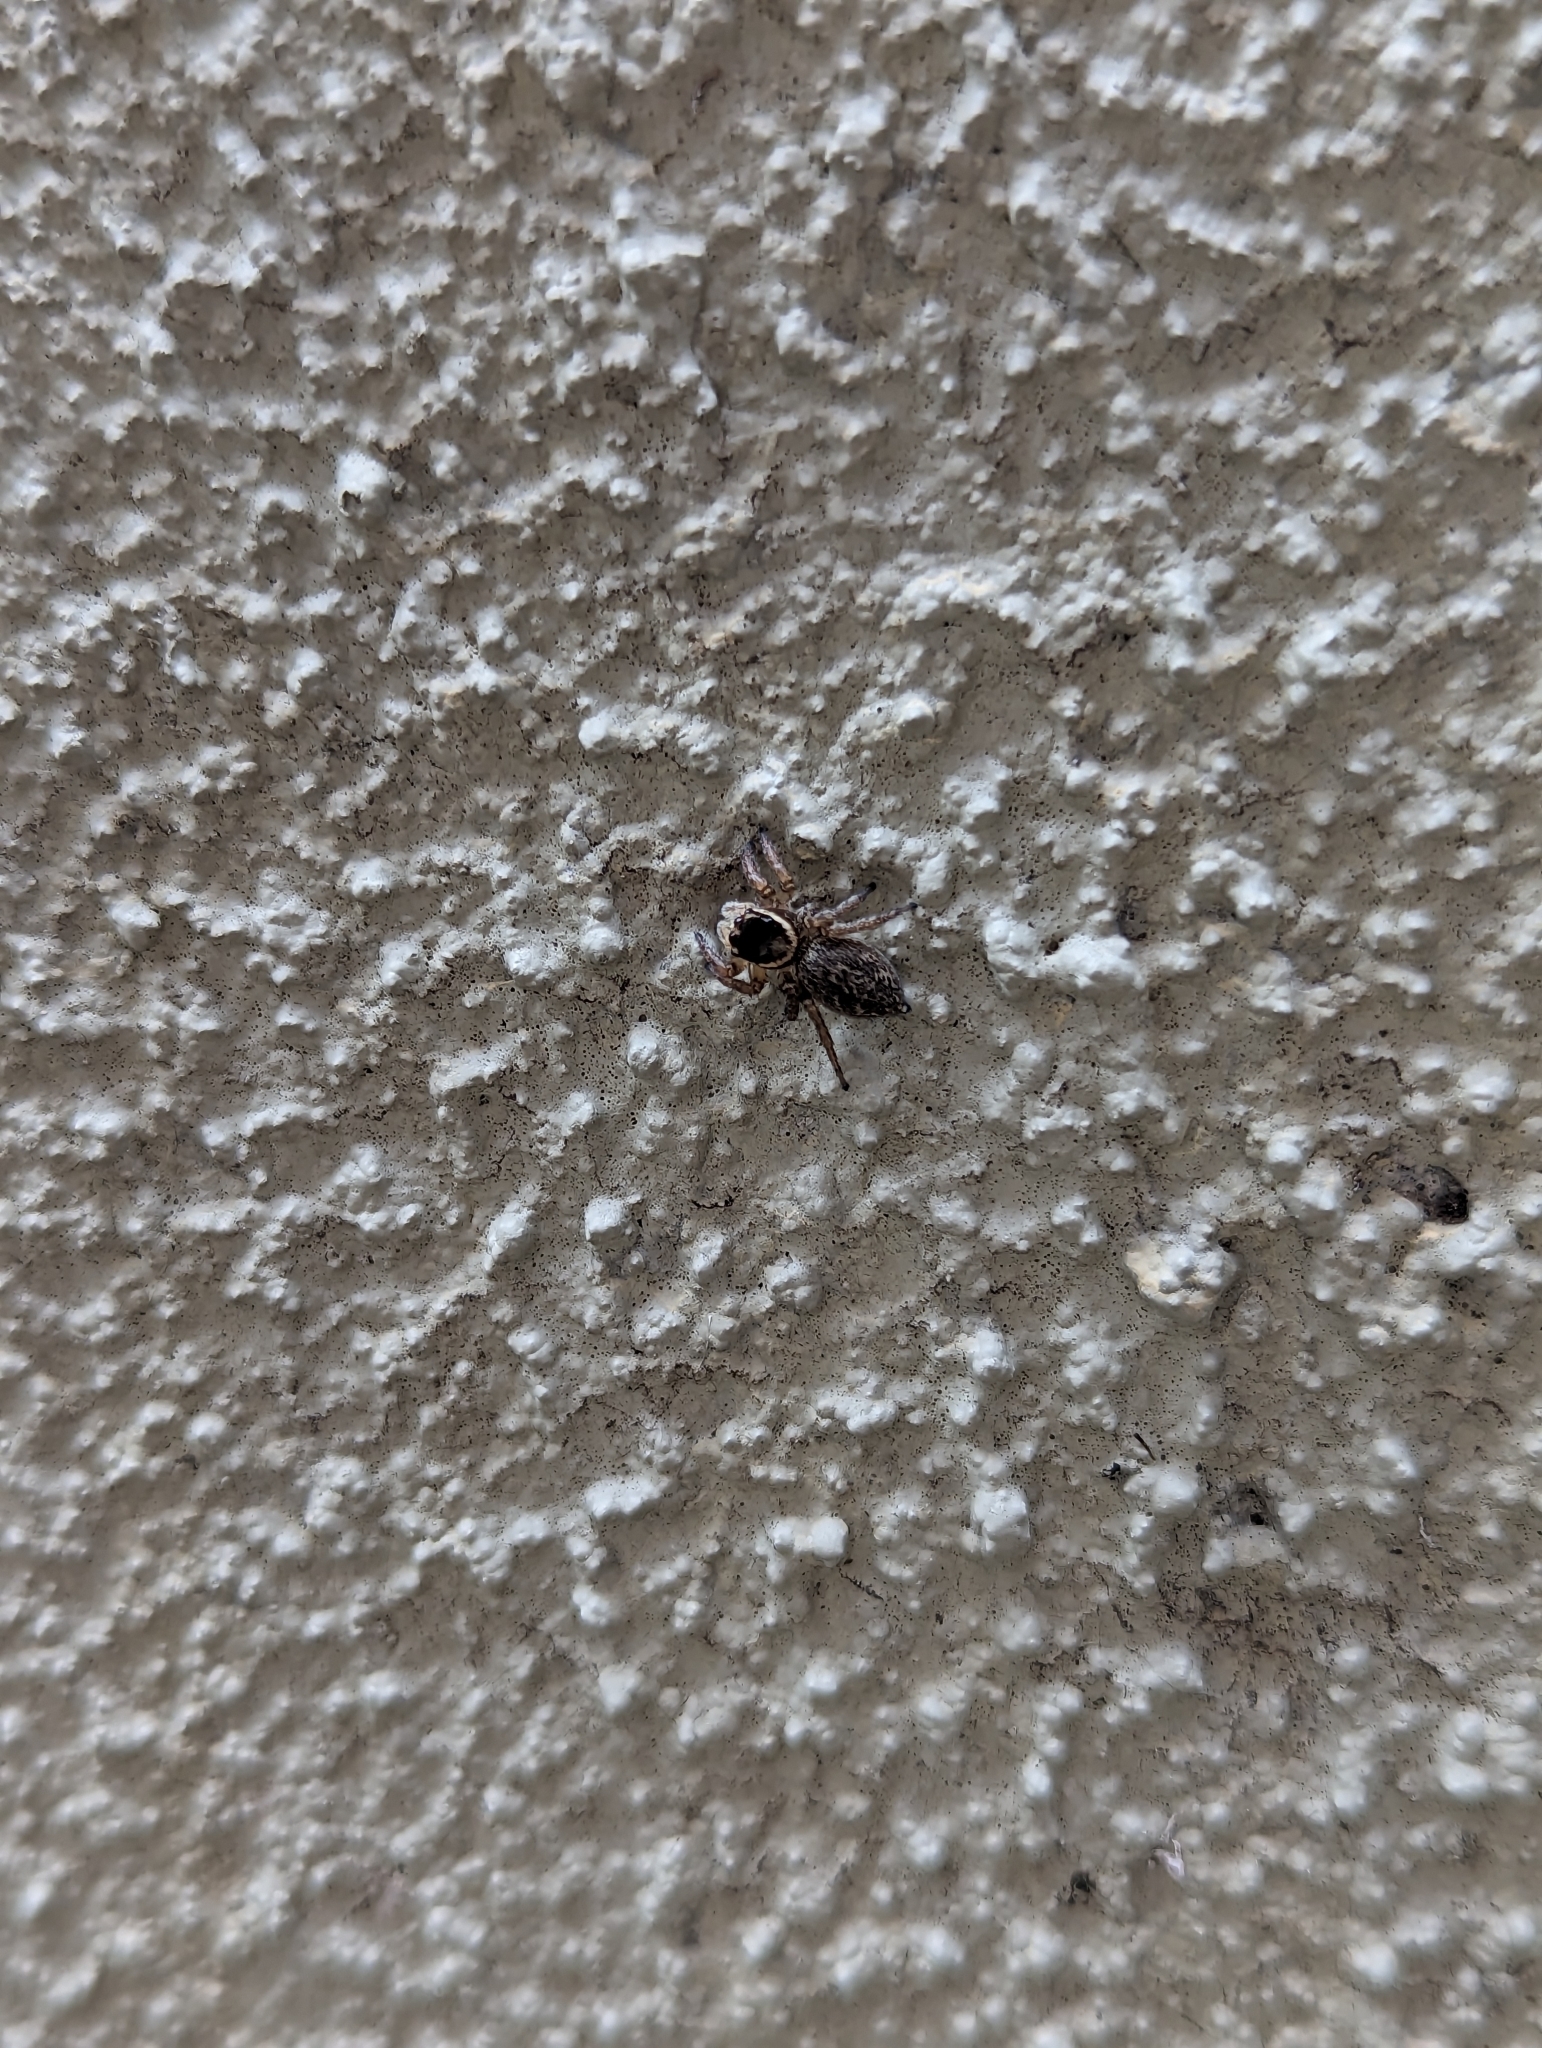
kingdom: Animalia
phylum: Arthropoda
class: Arachnida
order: Araneae
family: Salticidae
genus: Maratus
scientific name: Maratus griseus
